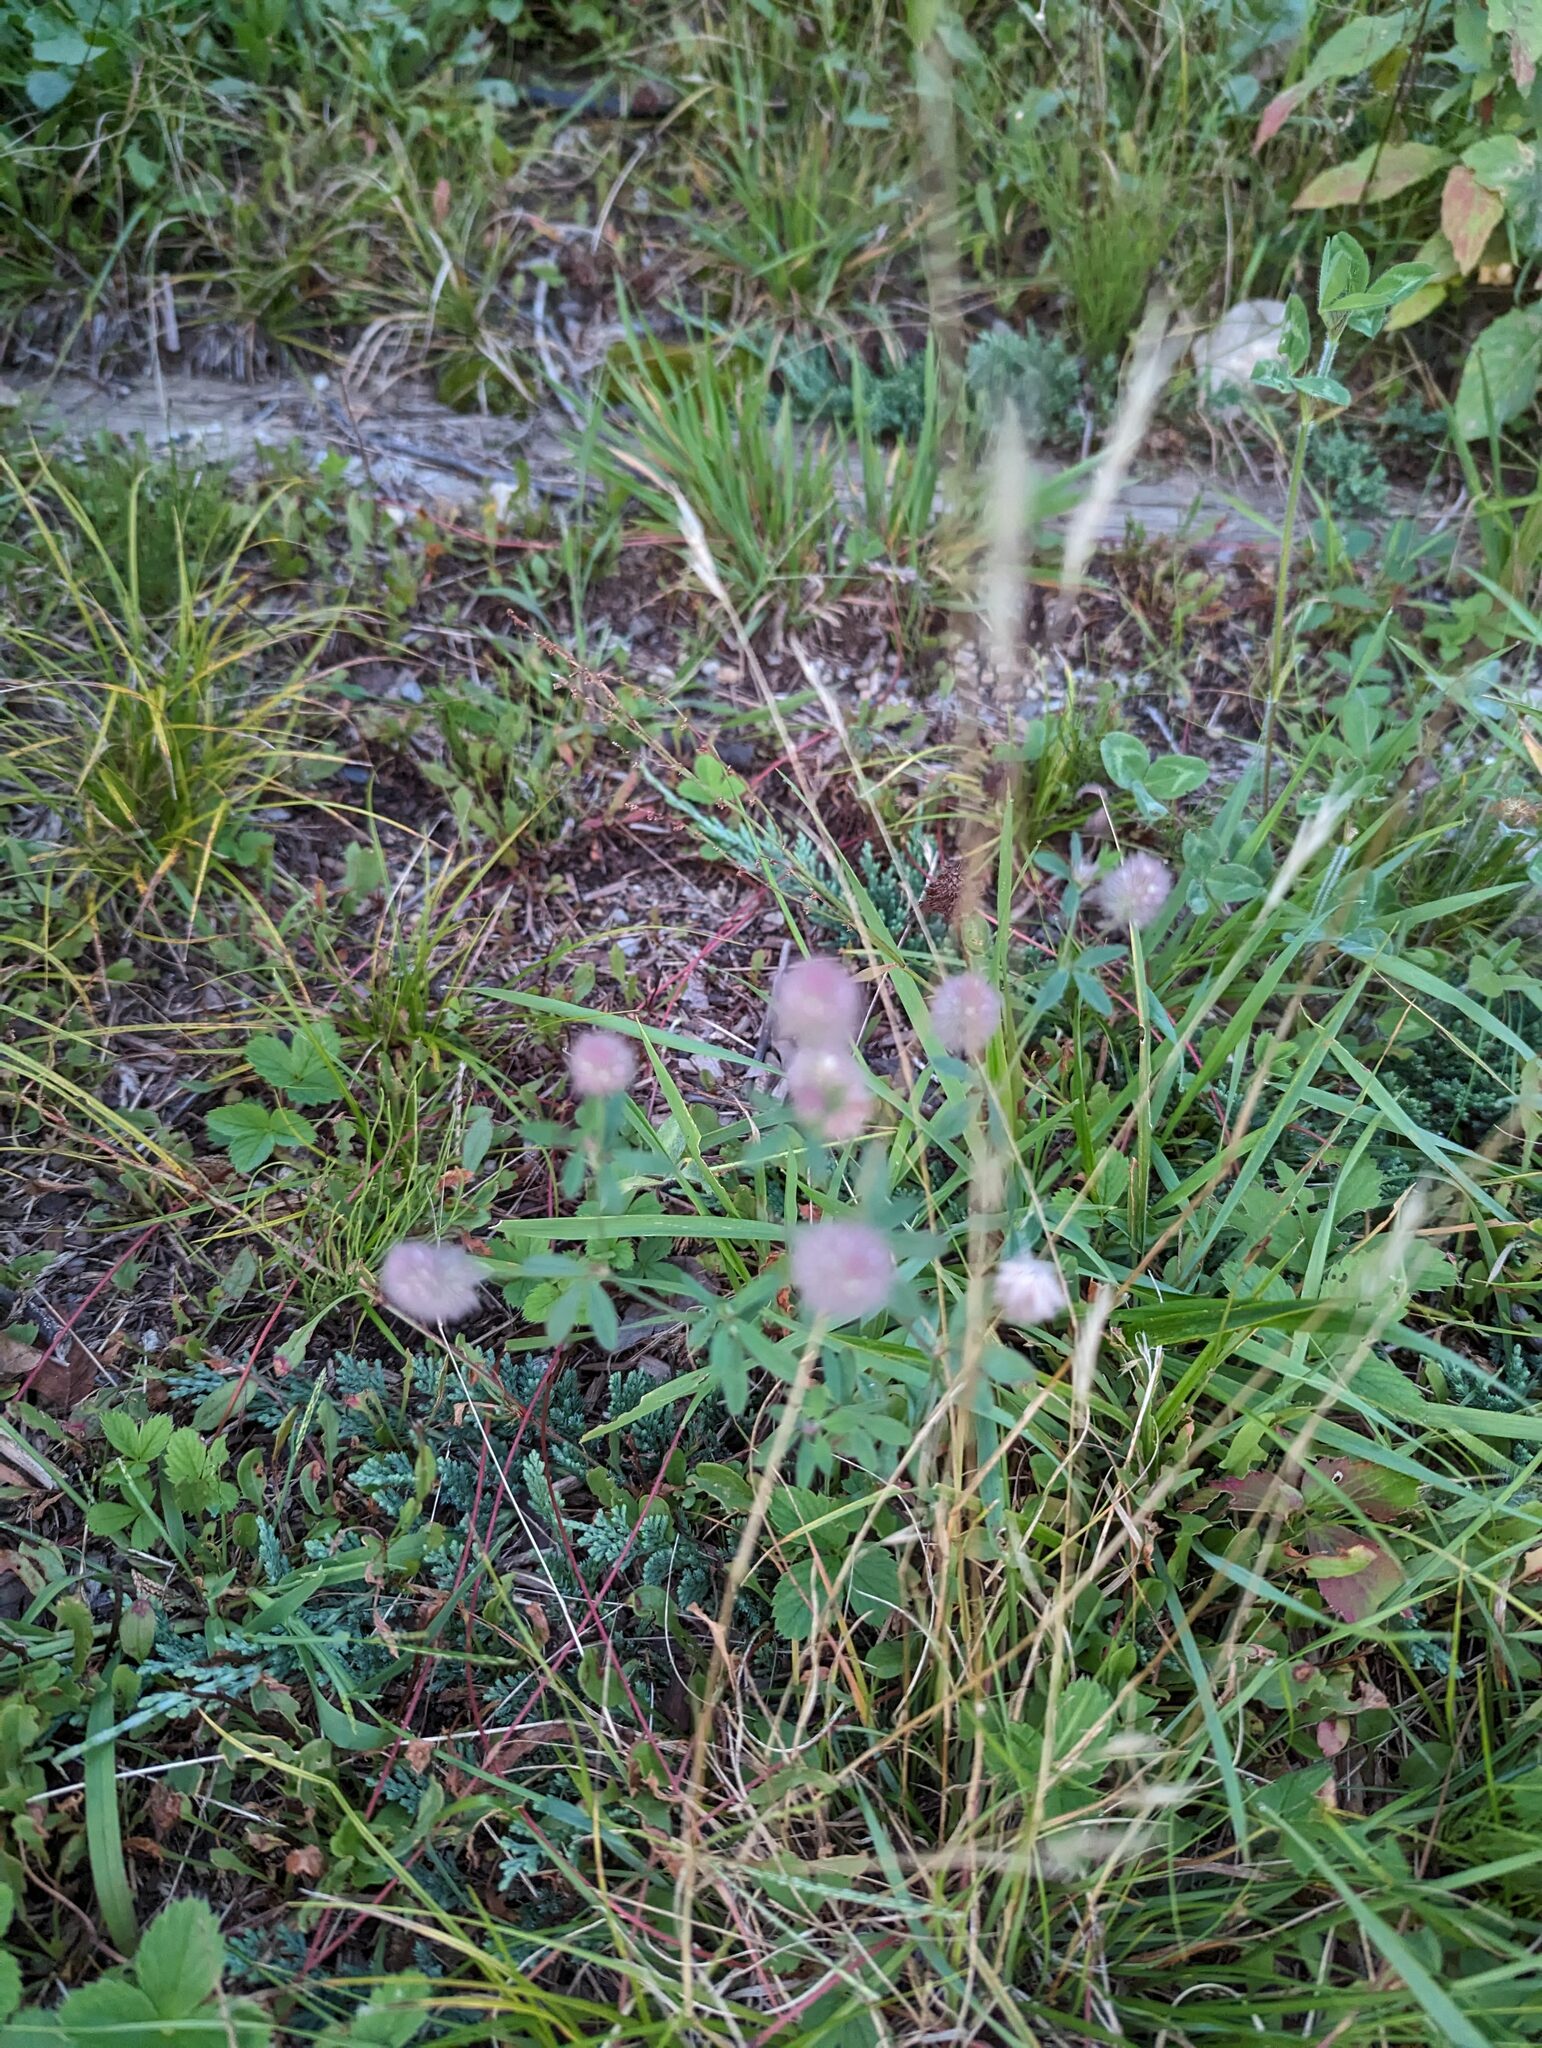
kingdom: Plantae
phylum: Tracheophyta
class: Magnoliopsida
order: Fabales
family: Fabaceae
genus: Trifolium
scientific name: Trifolium arvense
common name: Hare's-foot clover
